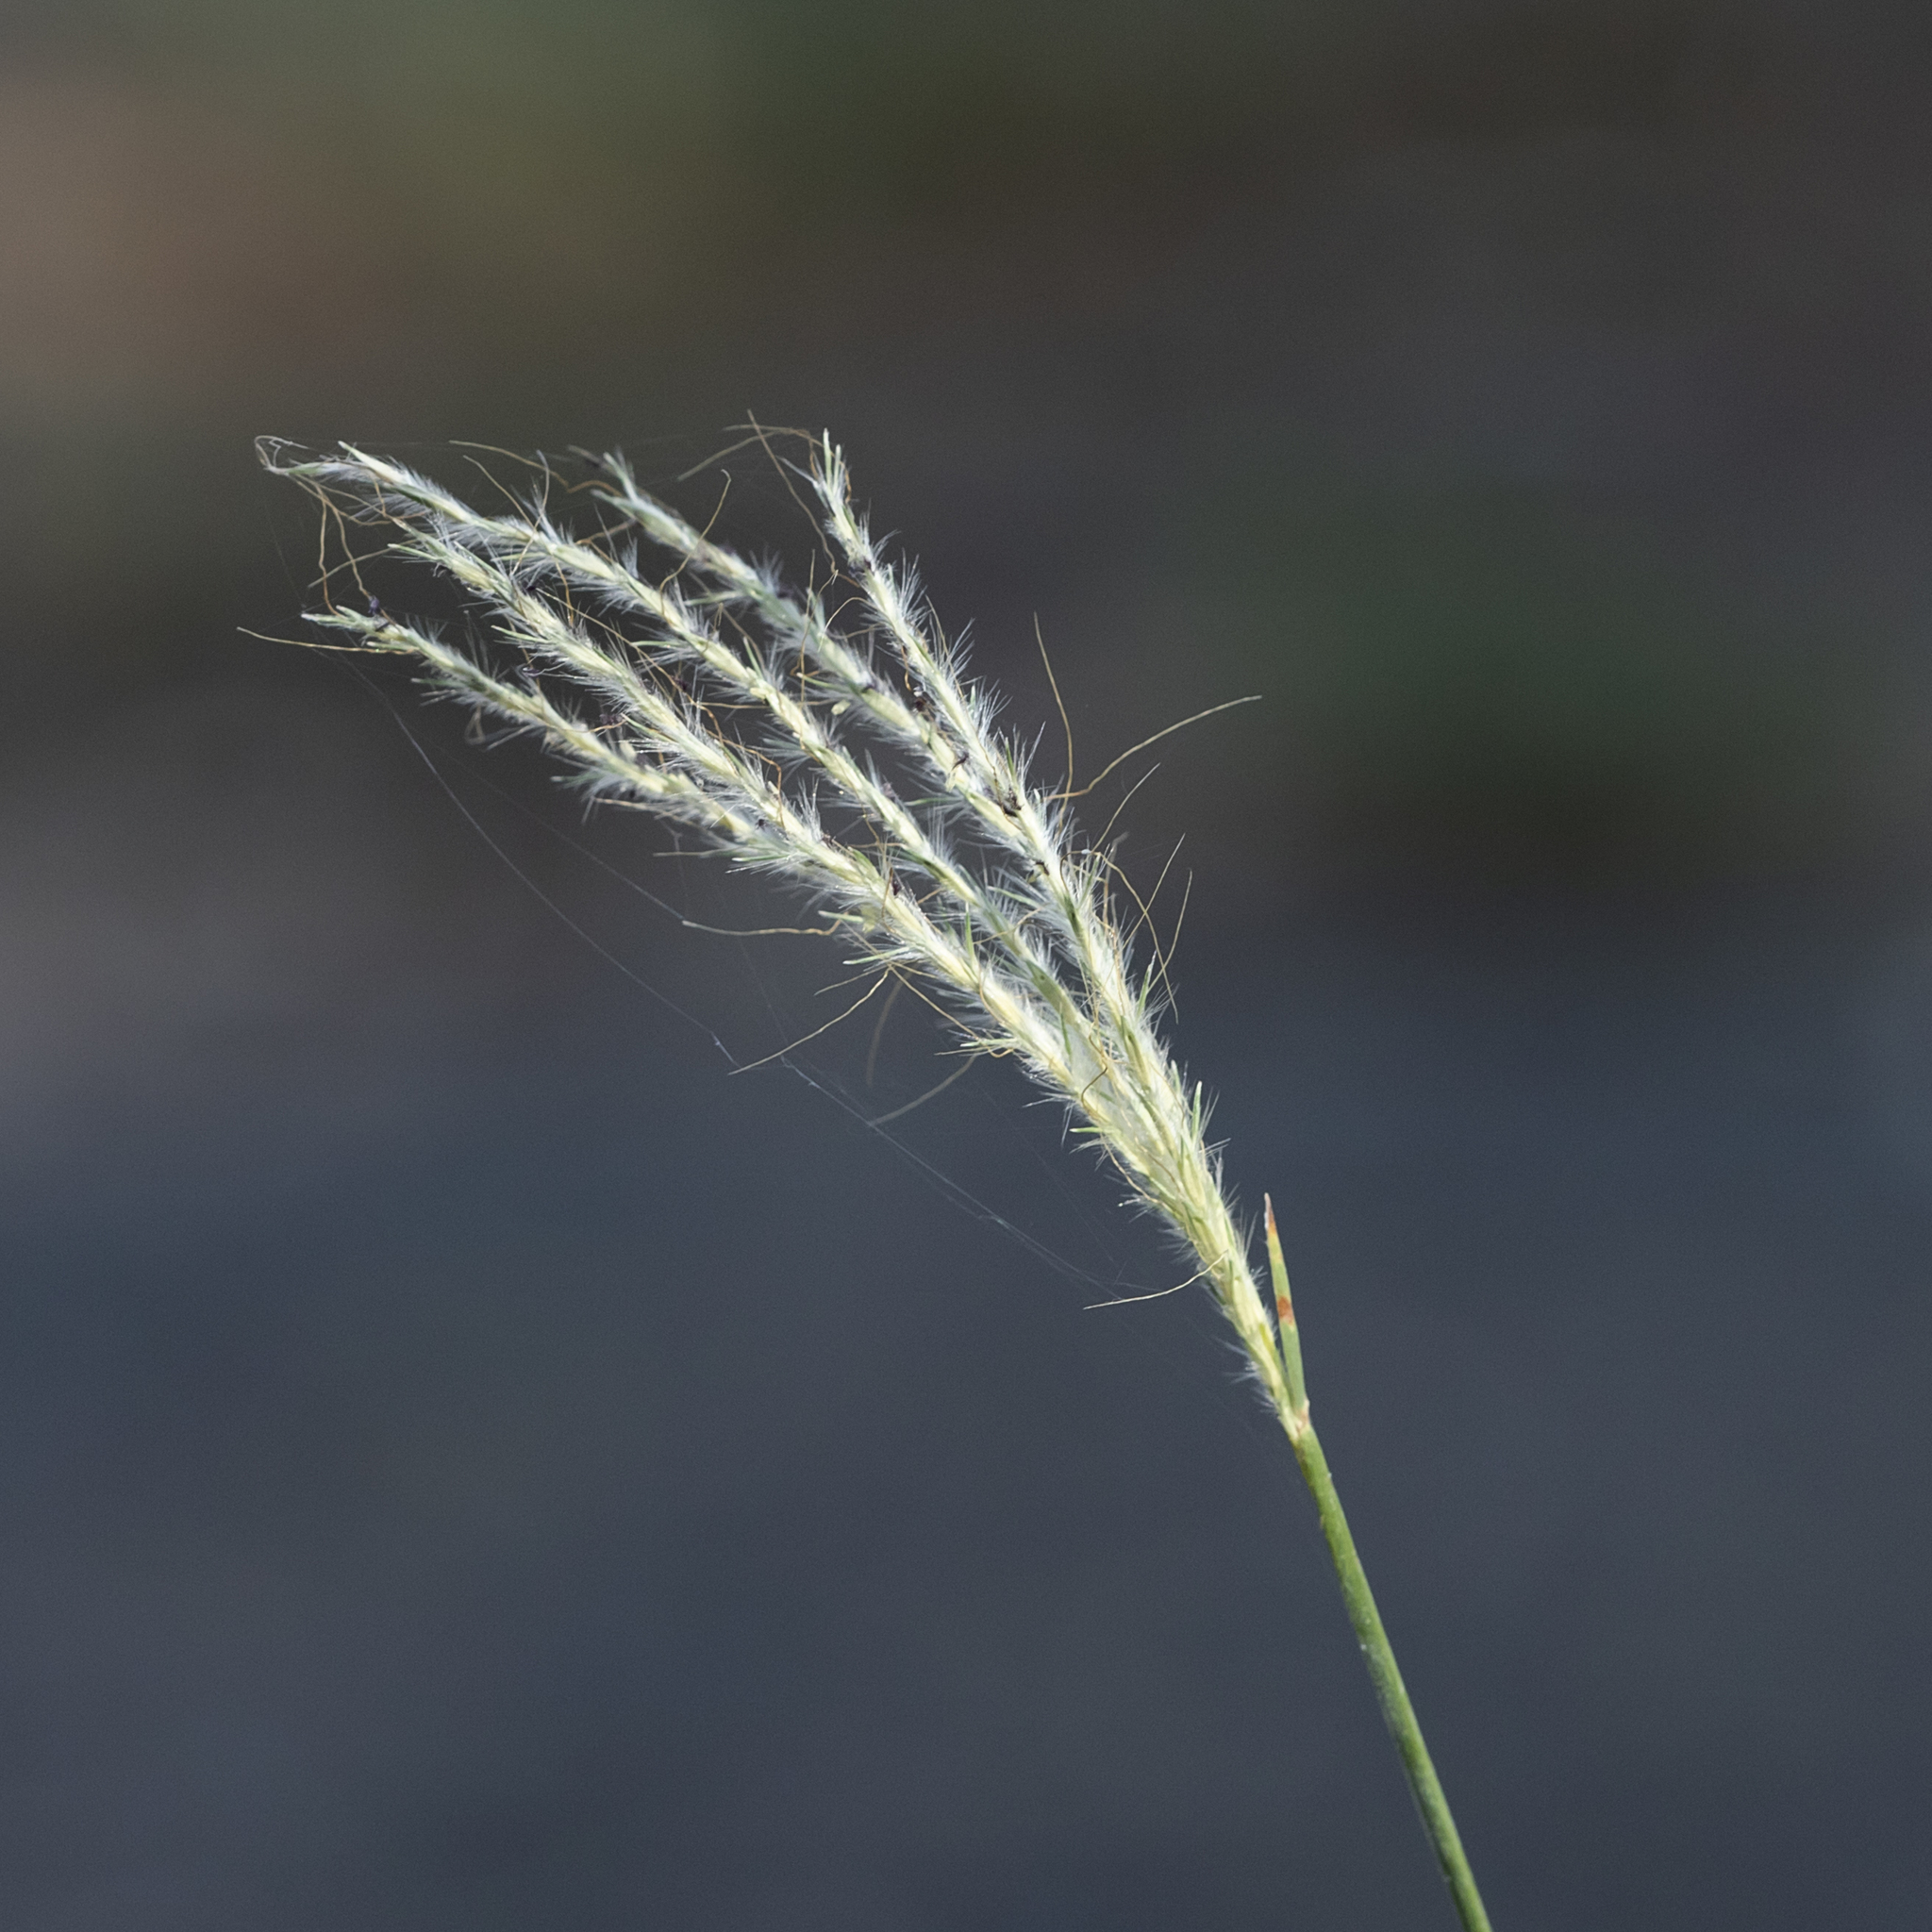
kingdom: Plantae
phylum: Tracheophyta
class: Liliopsida
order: Poales
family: Poaceae
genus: Bothriochloa
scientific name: Bothriochloa decipiens
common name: Pitted-bluegrass
